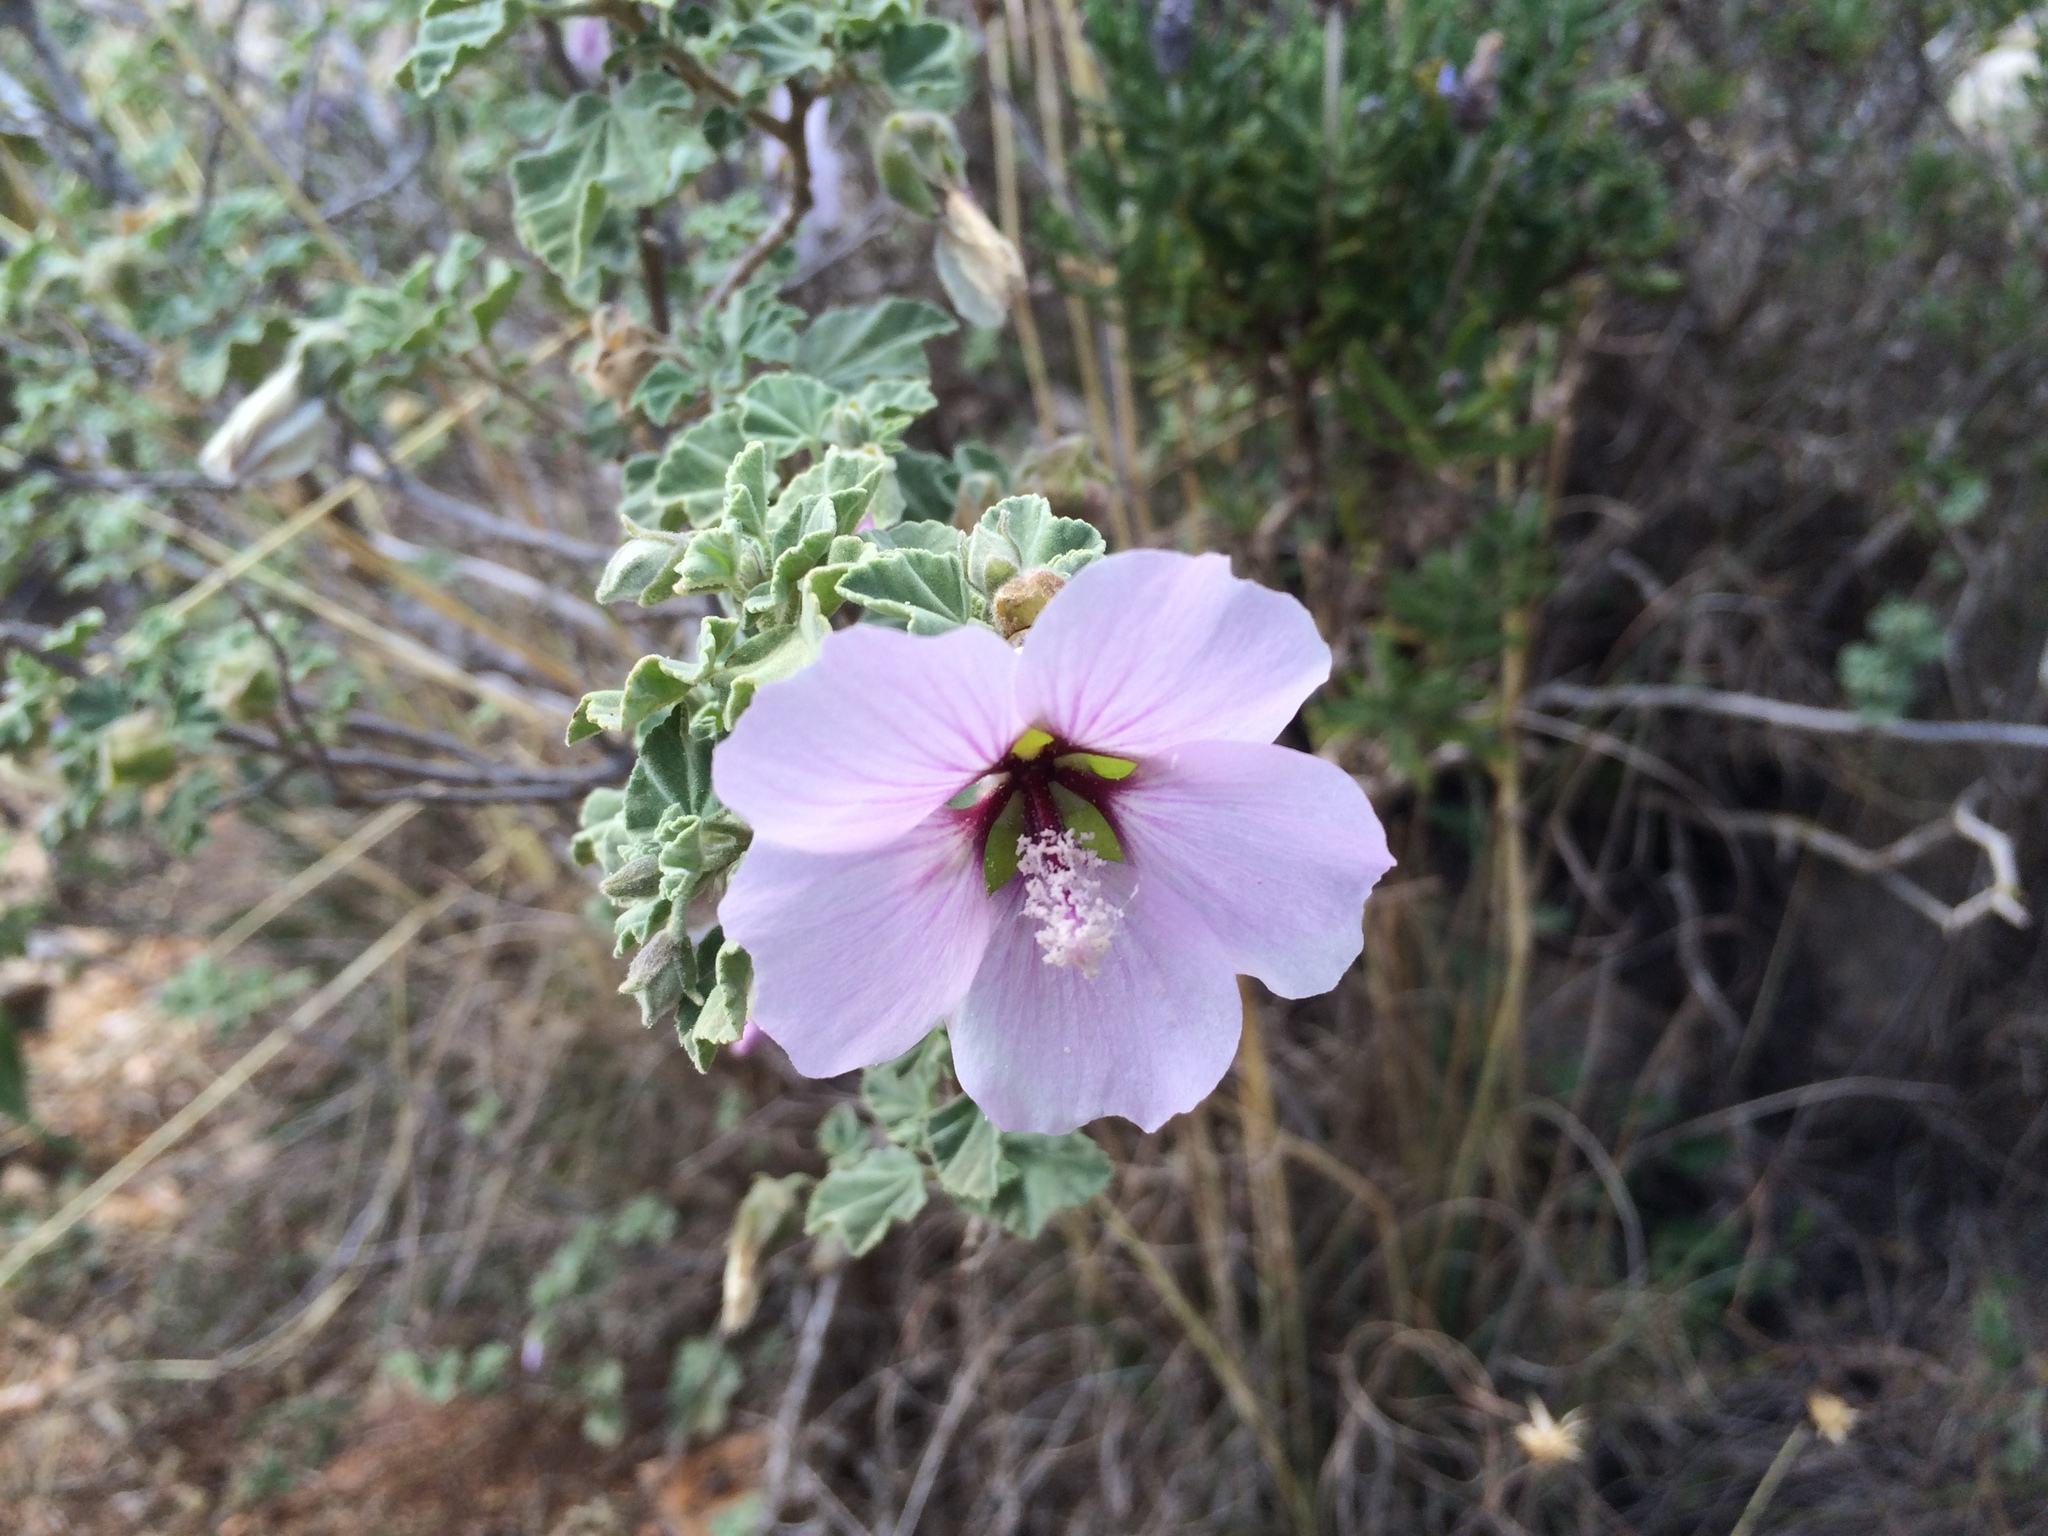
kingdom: Plantae
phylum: Tracheophyta
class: Magnoliopsida
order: Malvales
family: Malvaceae
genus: Malva
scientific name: Malva subovata
